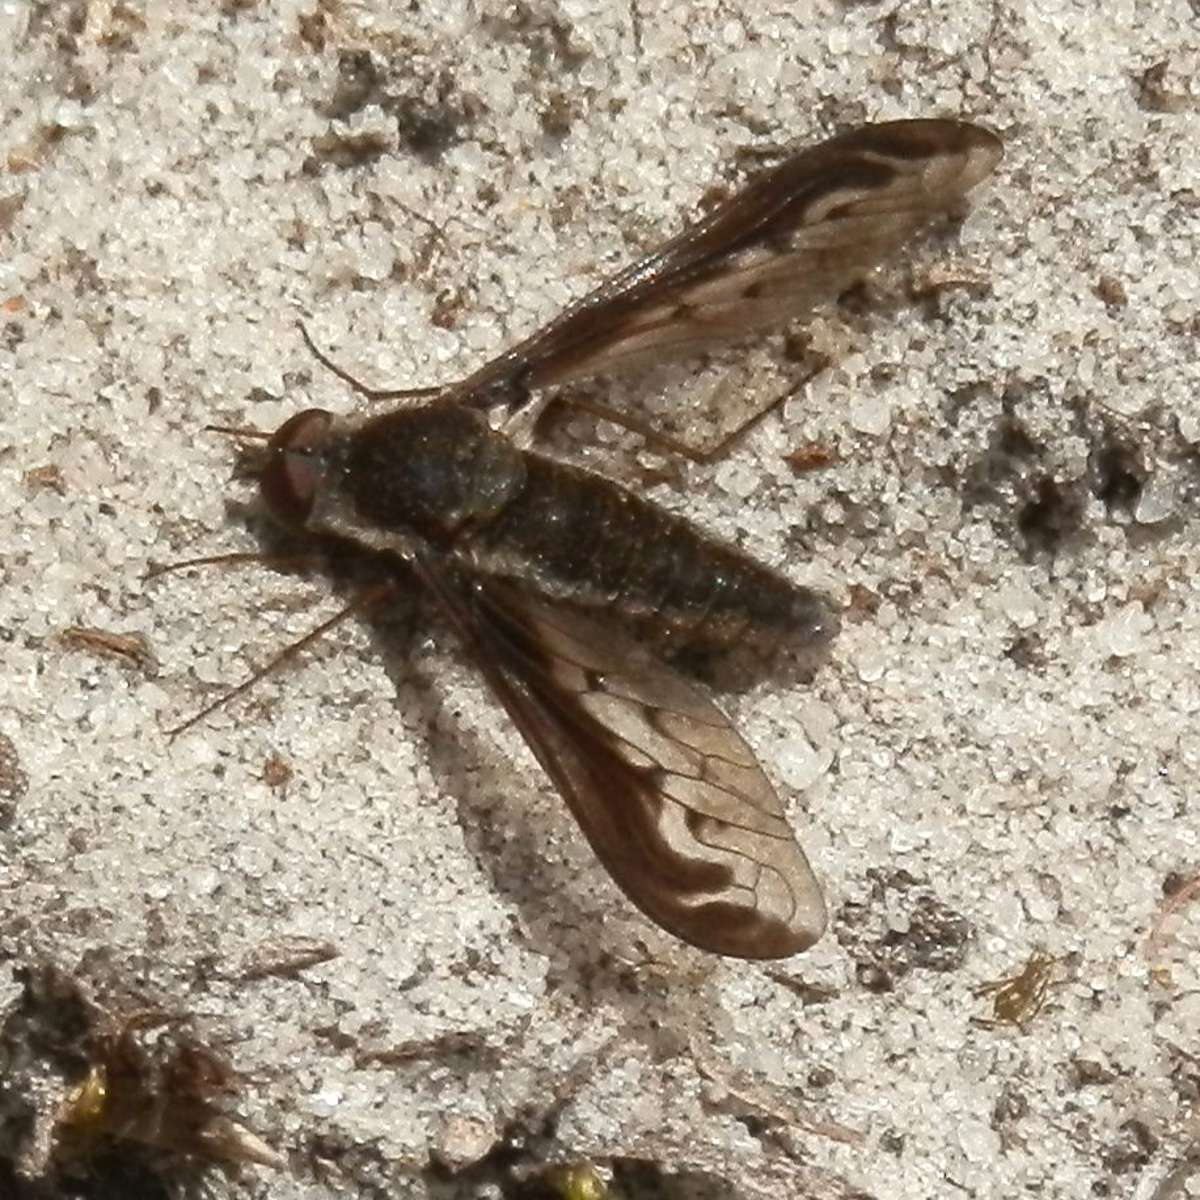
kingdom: Animalia
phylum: Arthropoda
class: Insecta
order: Diptera
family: Bombyliidae
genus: Aleucosia
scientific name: Aleucosia calophthalma
